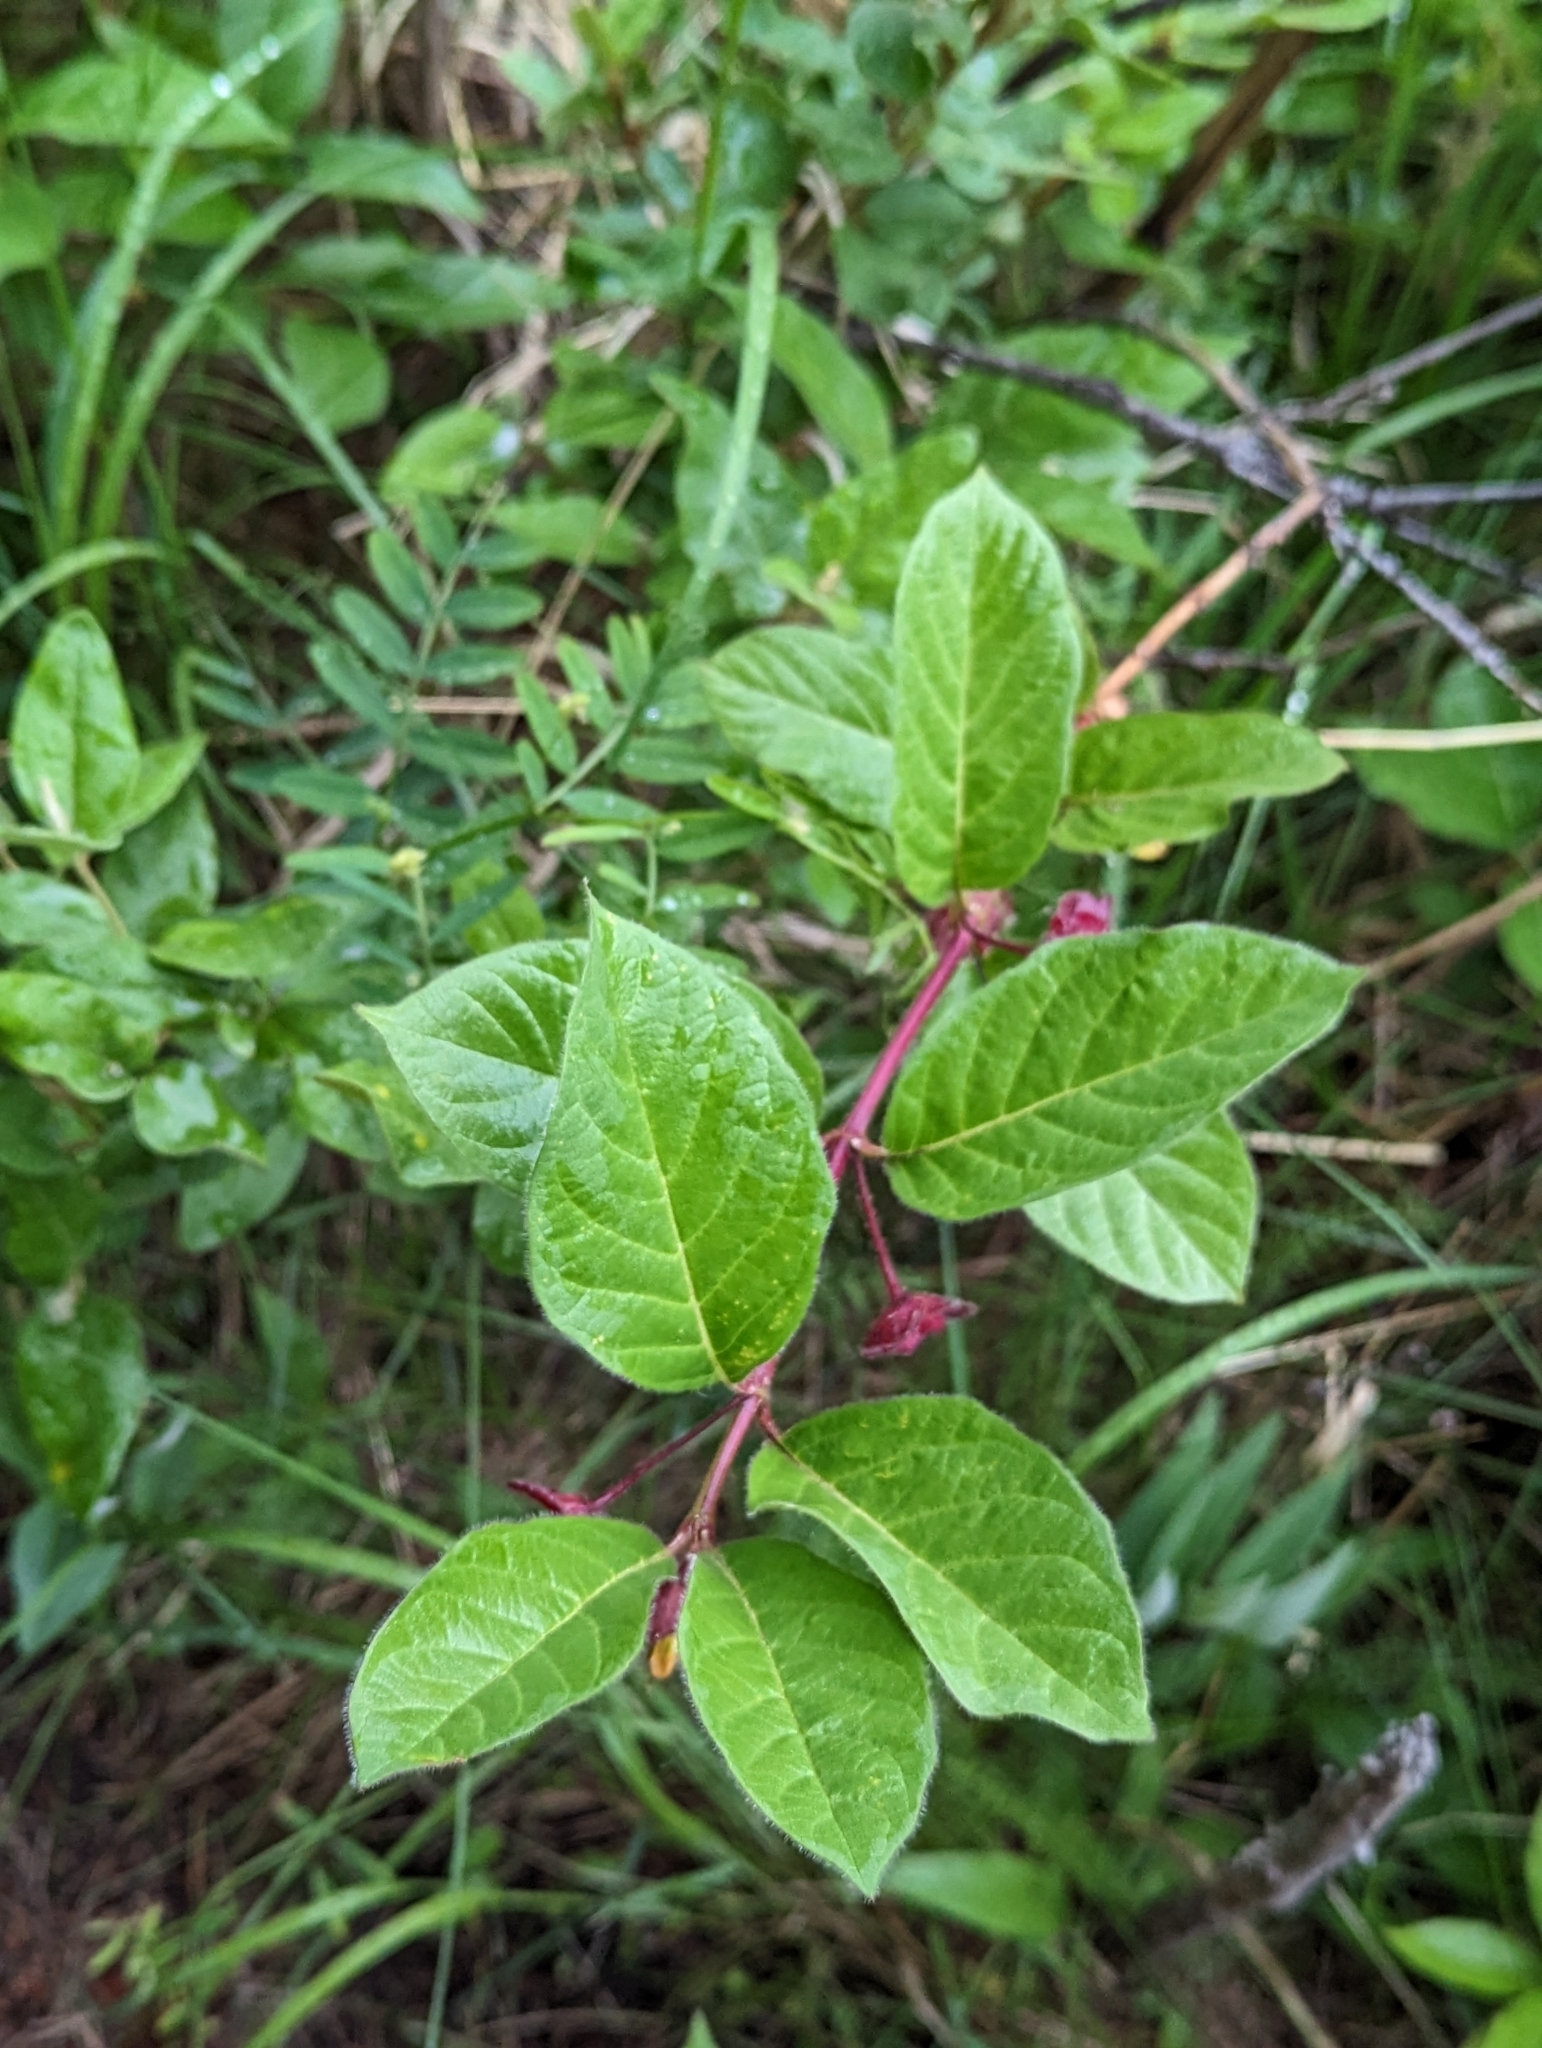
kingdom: Plantae
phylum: Tracheophyta
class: Magnoliopsida
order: Dipsacales
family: Caprifoliaceae
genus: Lonicera
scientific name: Lonicera involucrata
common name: Californian honeysuckle
